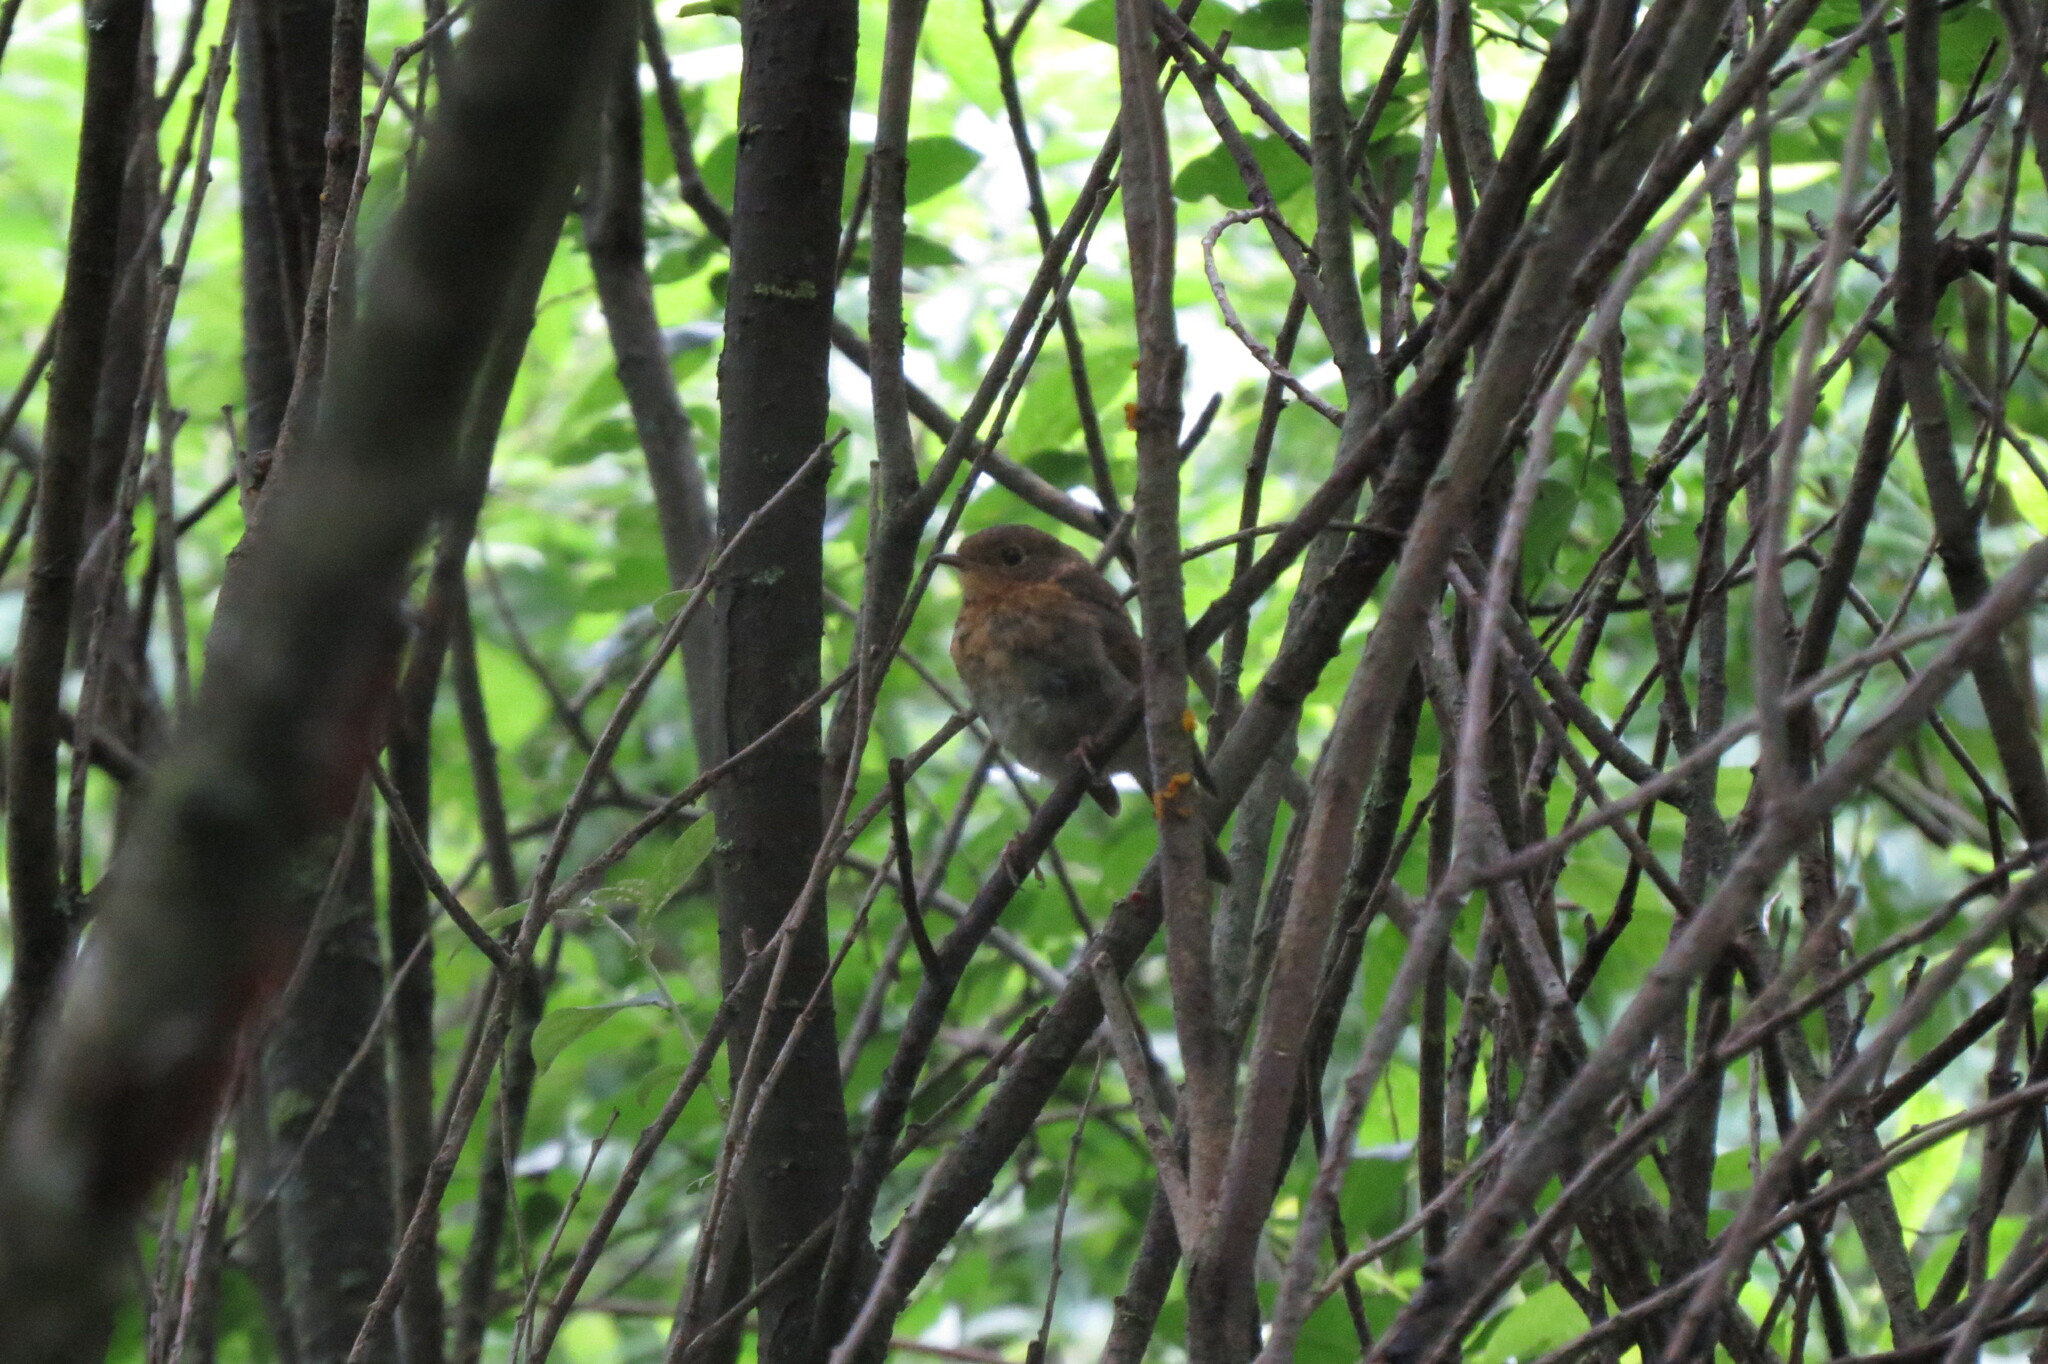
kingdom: Animalia
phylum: Chordata
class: Aves
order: Passeriformes
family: Muscicapidae
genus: Erithacus
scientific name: Erithacus rubecula
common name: European robin
